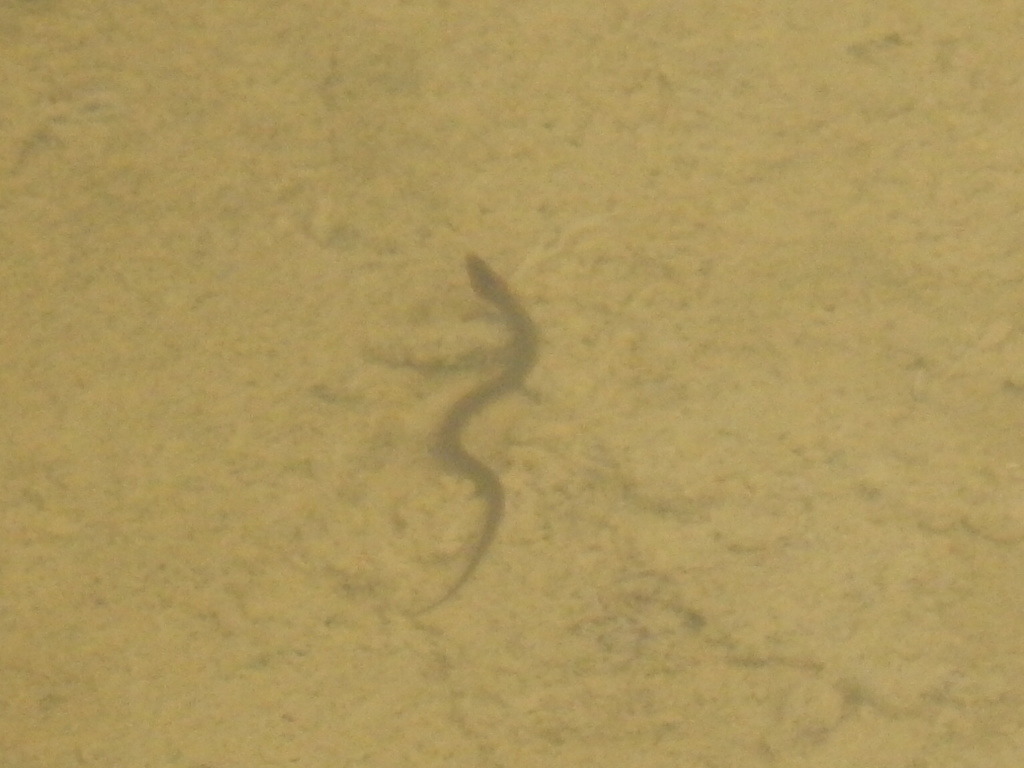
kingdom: Animalia
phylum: Chordata
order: Synbranchiformes
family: Synbranchidae
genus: Synbranchus
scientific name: Synbranchus marmoratus
